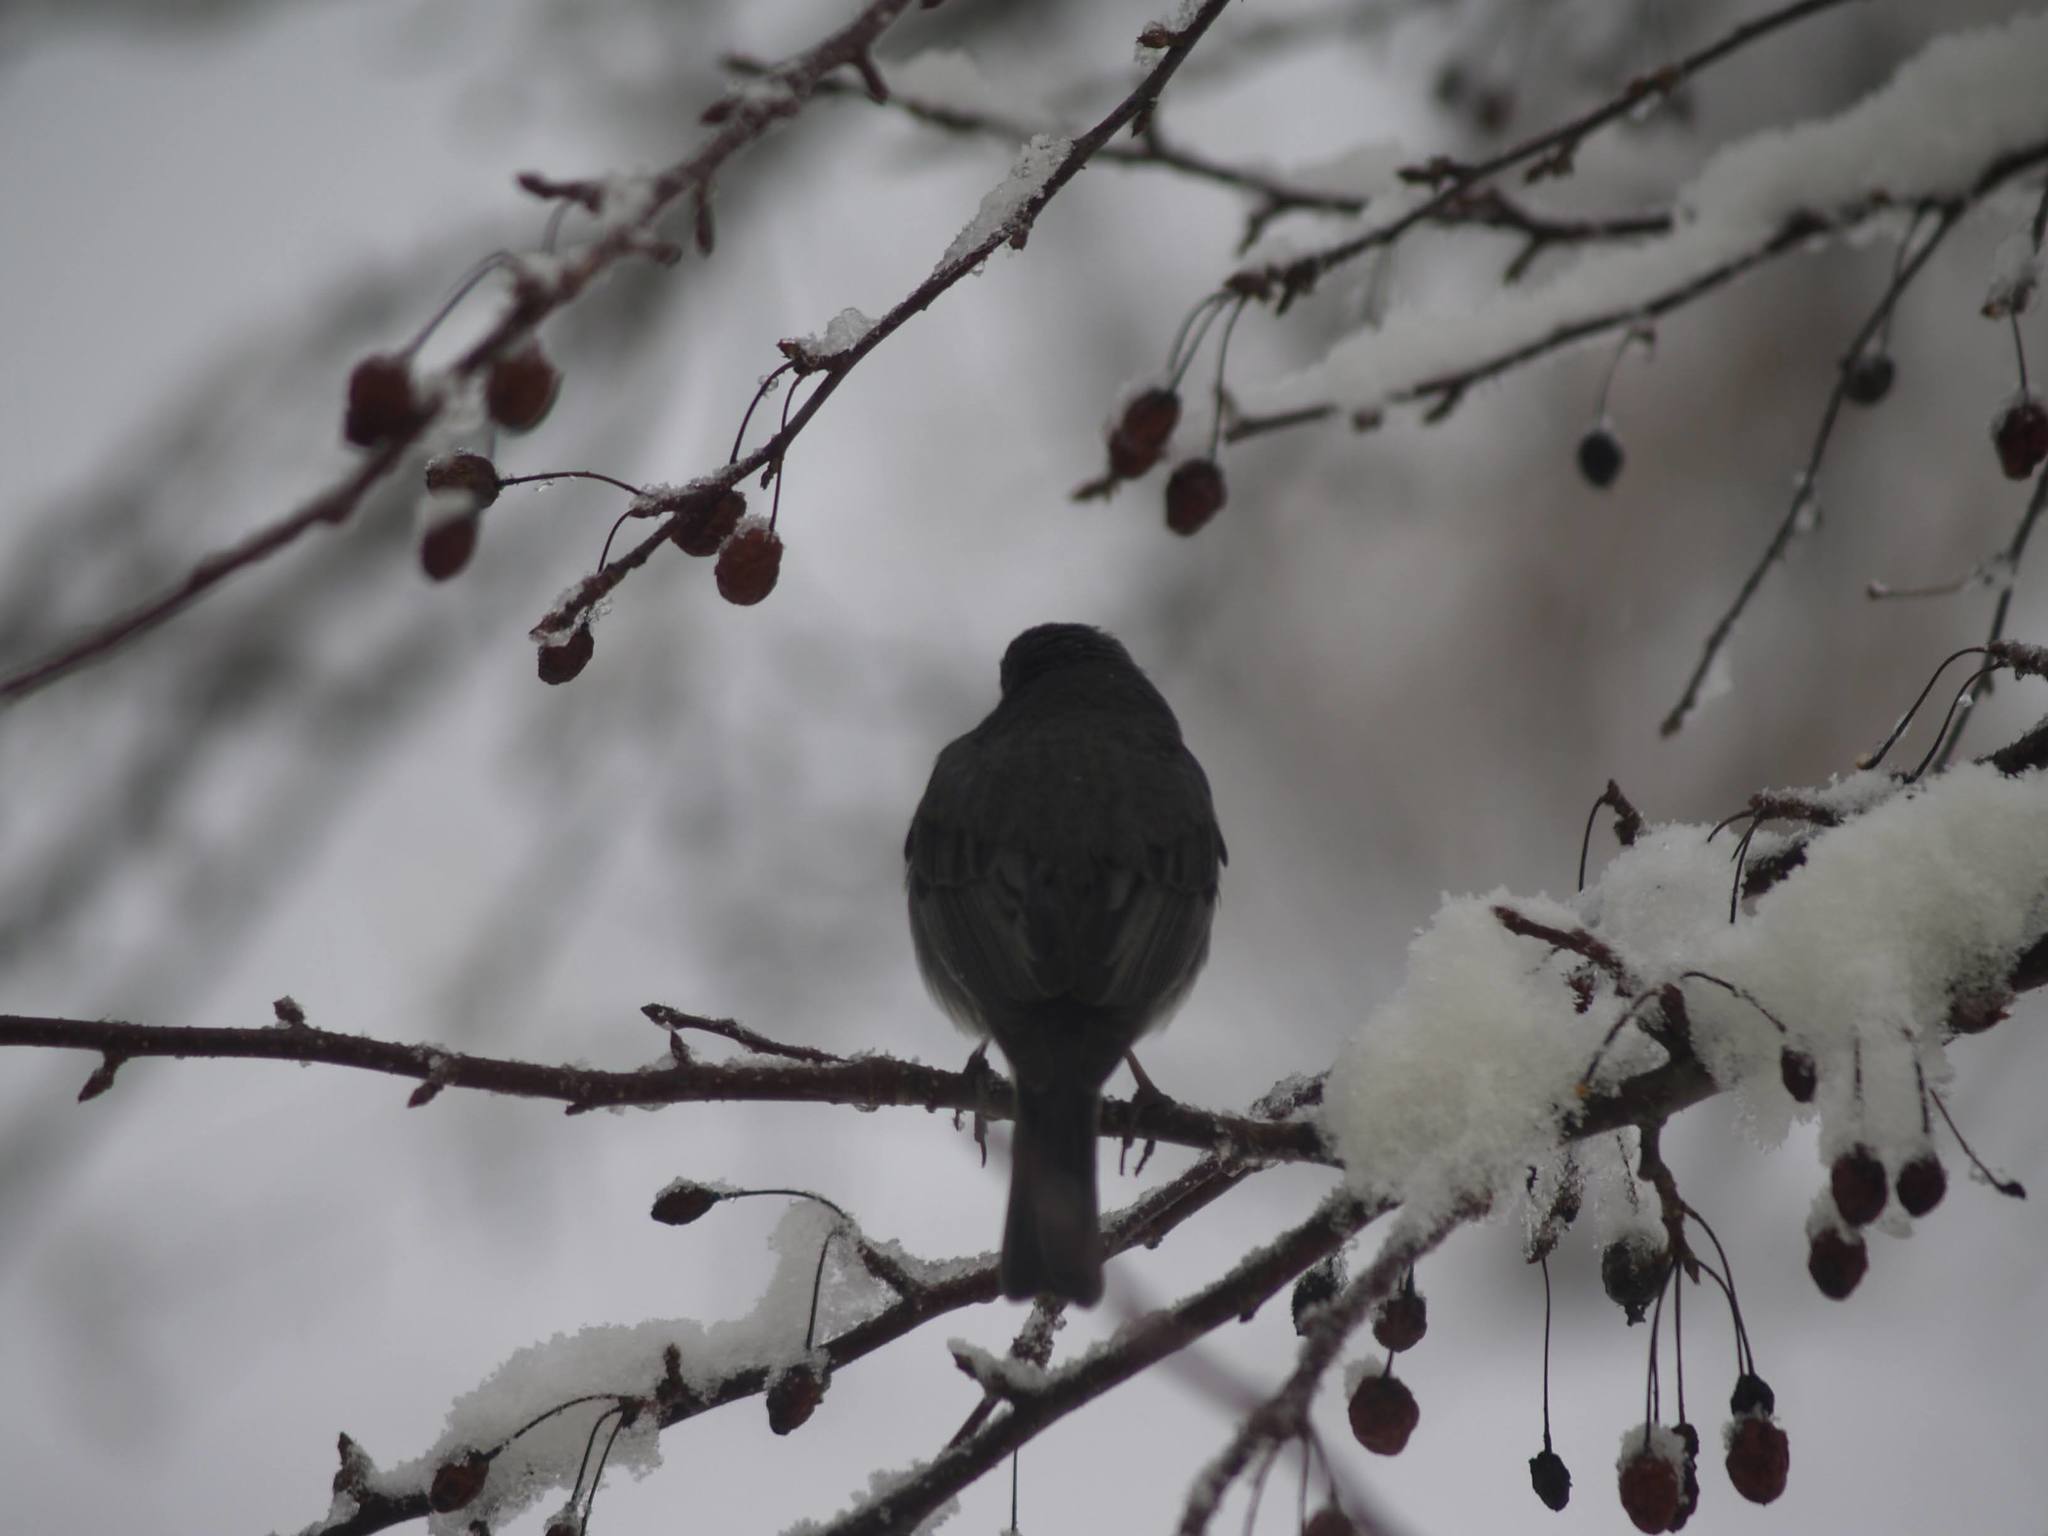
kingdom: Animalia
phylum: Chordata
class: Aves
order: Passeriformes
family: Passerellidae
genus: Junco
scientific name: Junco hyemalis
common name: Dark-eyed junco
